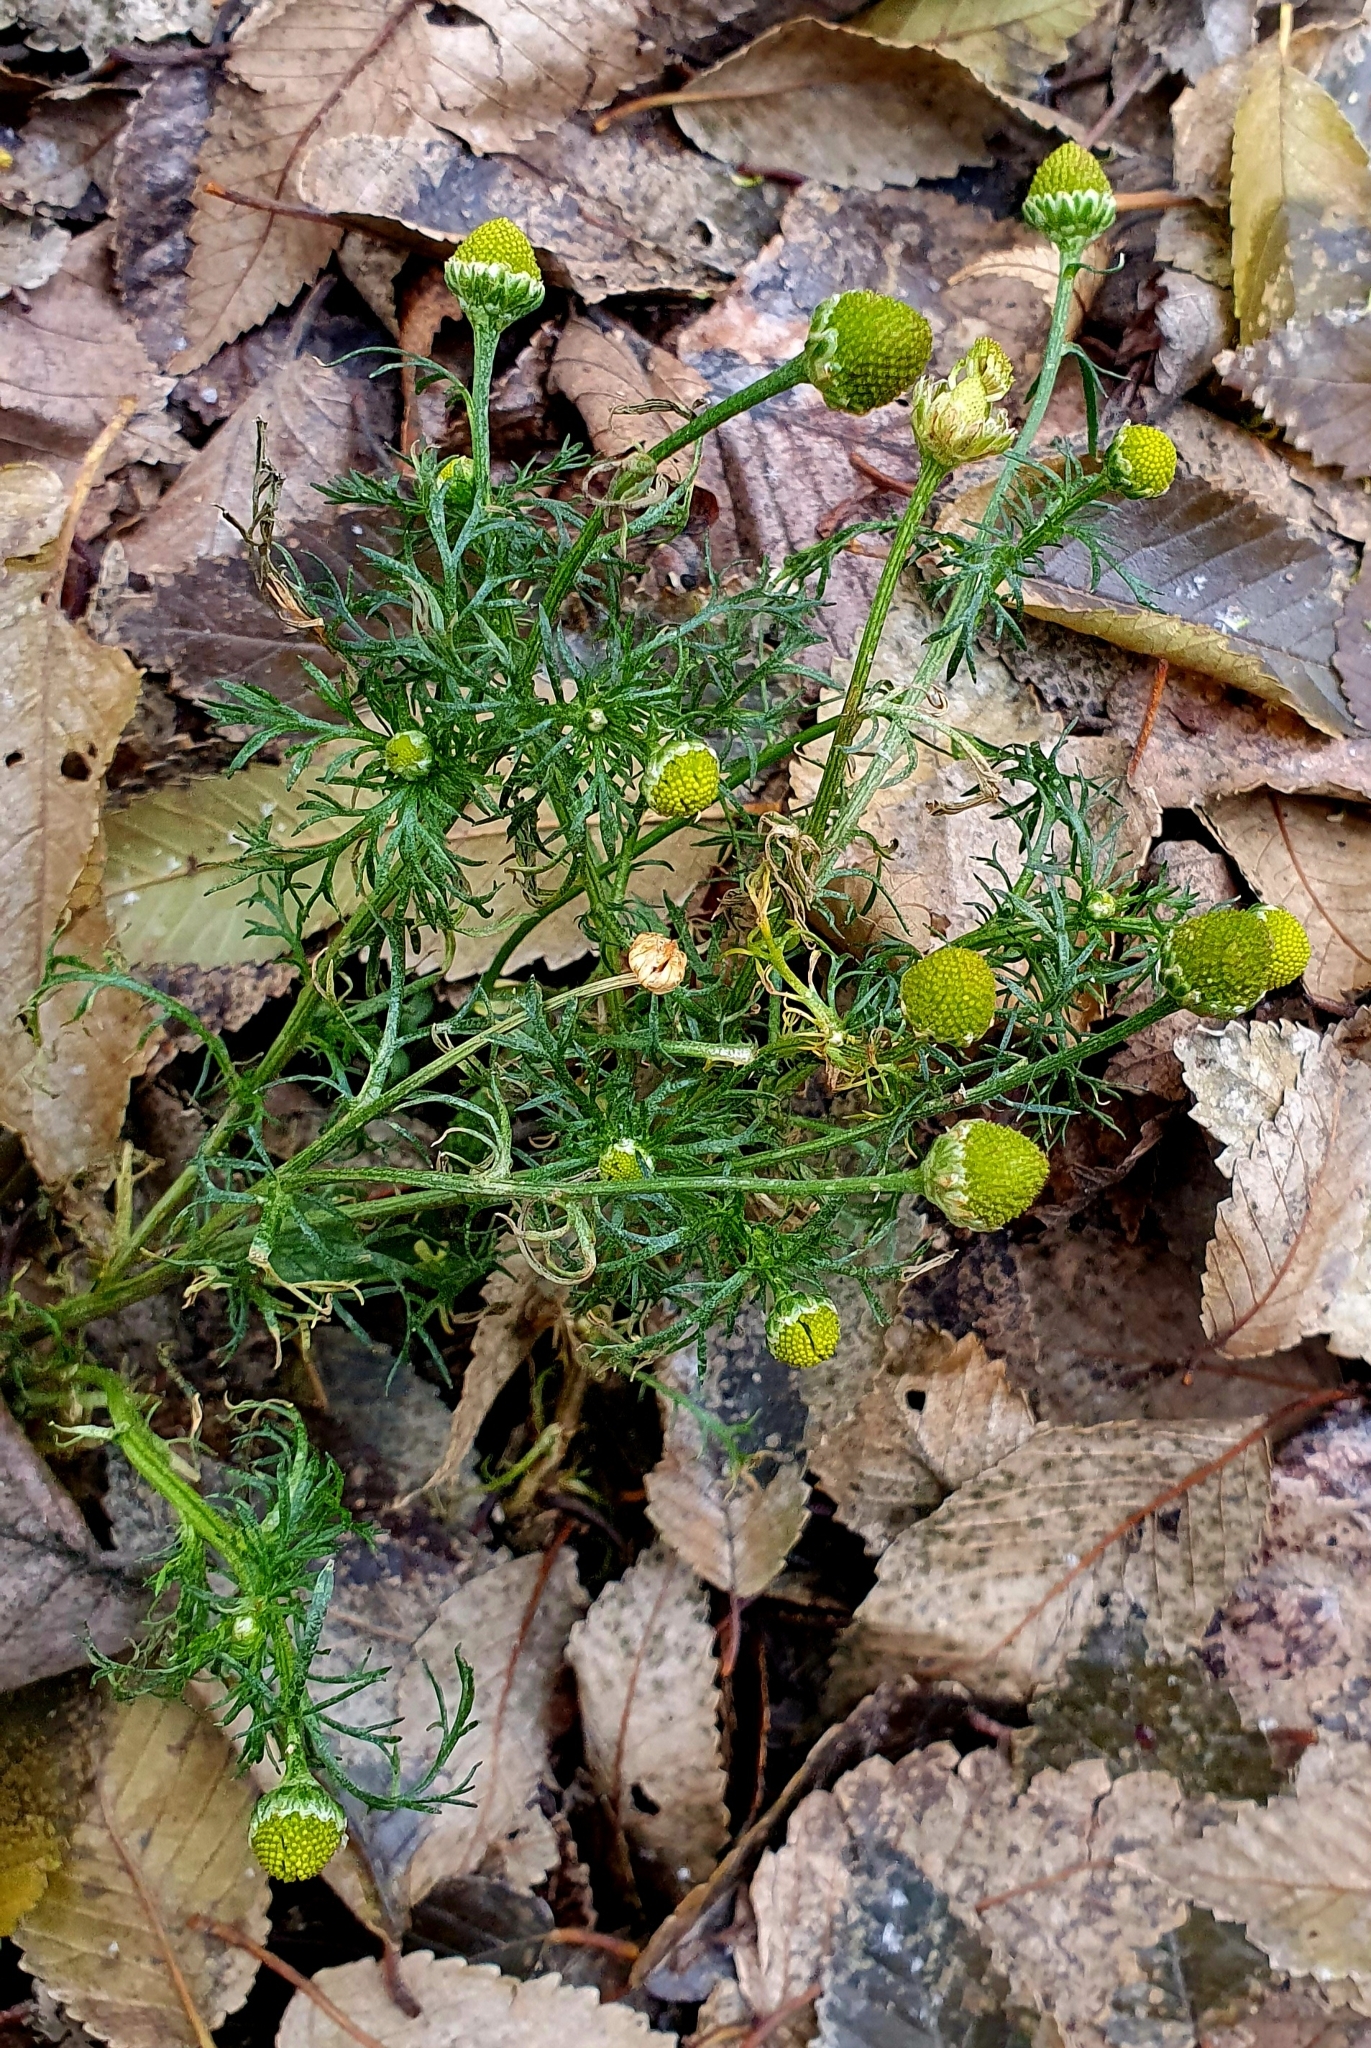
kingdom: Plantae
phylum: Tracheophyta
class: Magnoliopsida
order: Asterales
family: Asteraceae
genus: Matricaria
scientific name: Matricaria discoidea
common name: Disc mayweed
